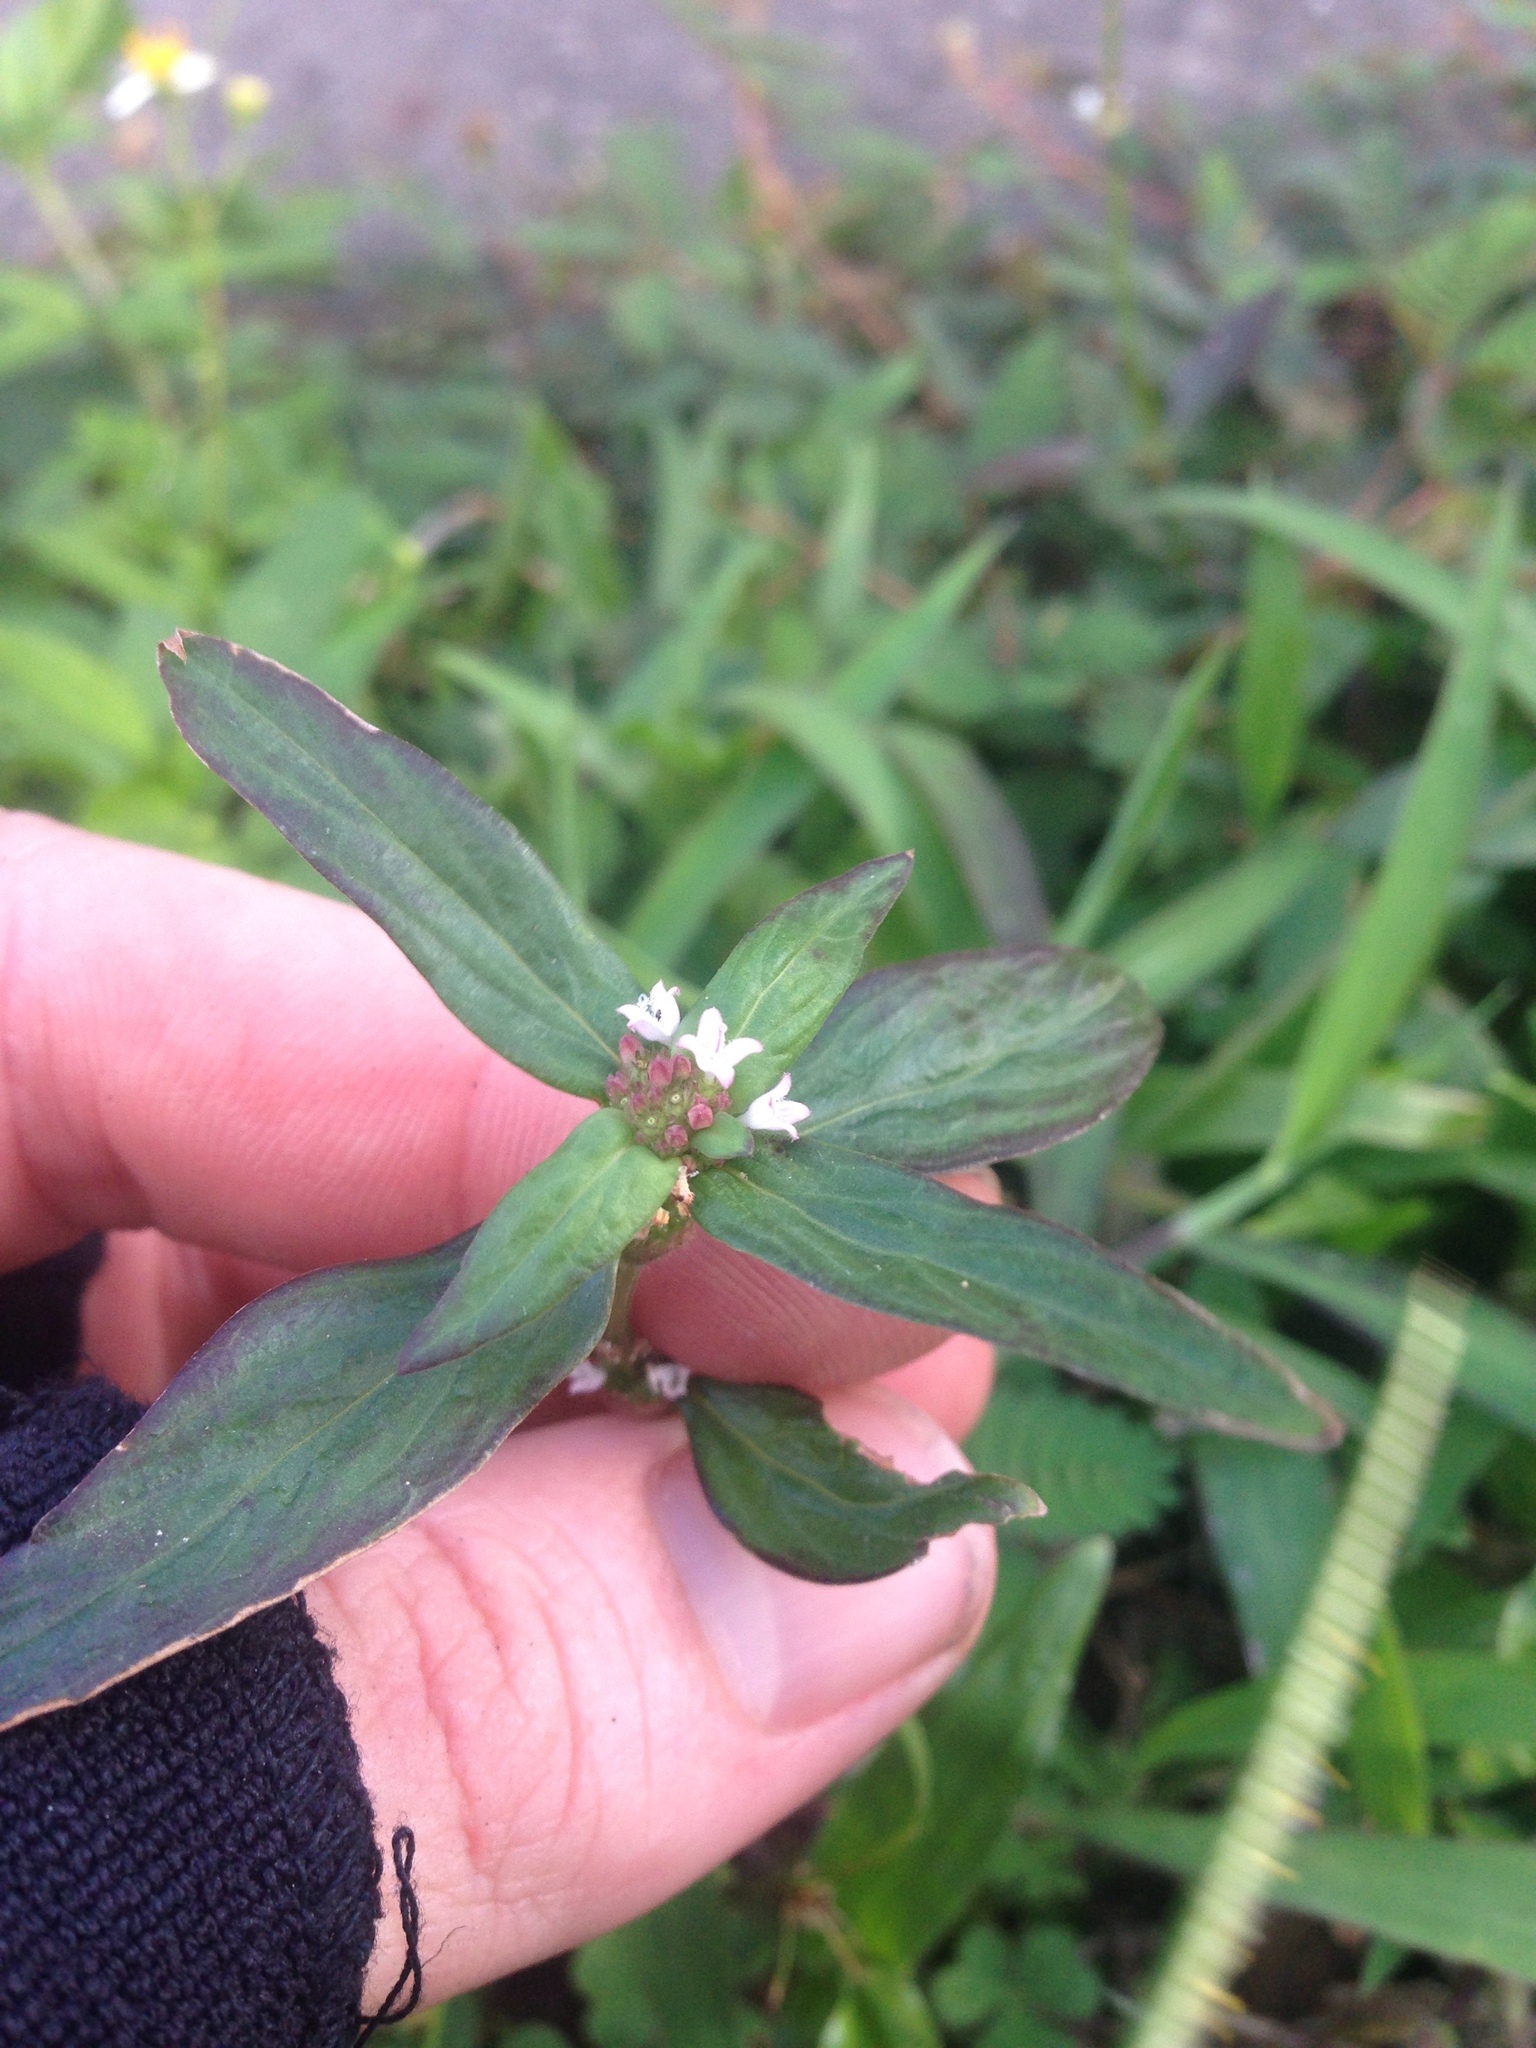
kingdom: Plantae
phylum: Tracheophyta
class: Magnoliopsida
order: Gentianales
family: Rubiaceae
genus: Spermacoce
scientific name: Spermacoce remota
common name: Woodland false buttonweed
